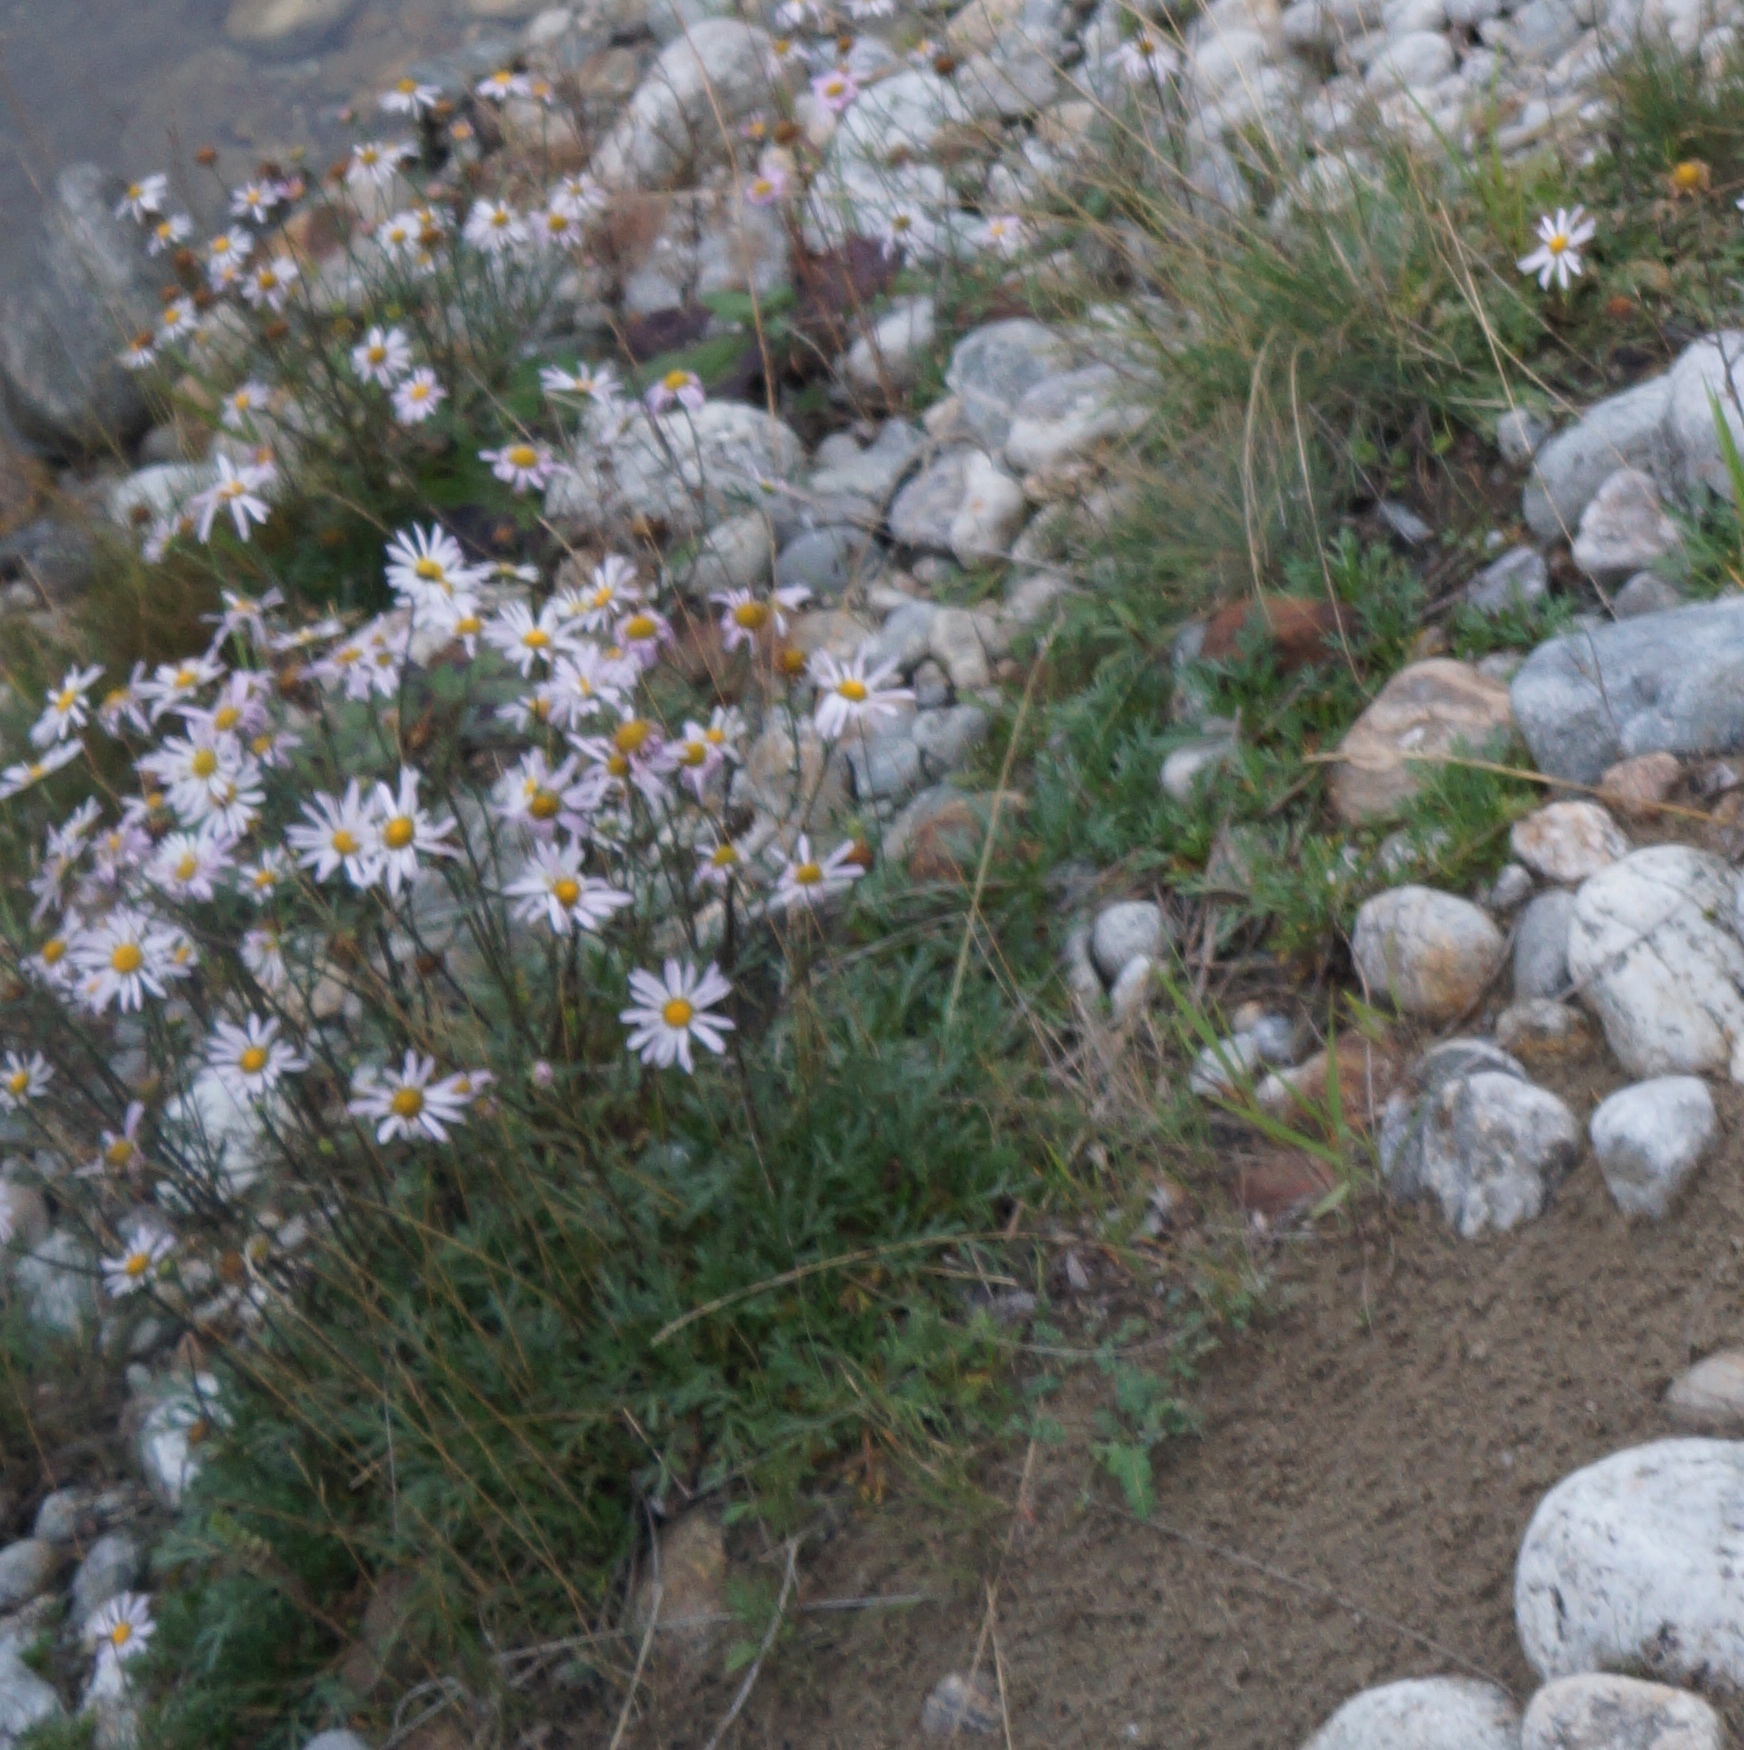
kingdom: Plantae
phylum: Tracheophyta
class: Magnoliopsida
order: Asterales
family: Asteraceae
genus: Chrysanthemum
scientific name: Chrysanthemum zawadzkii
